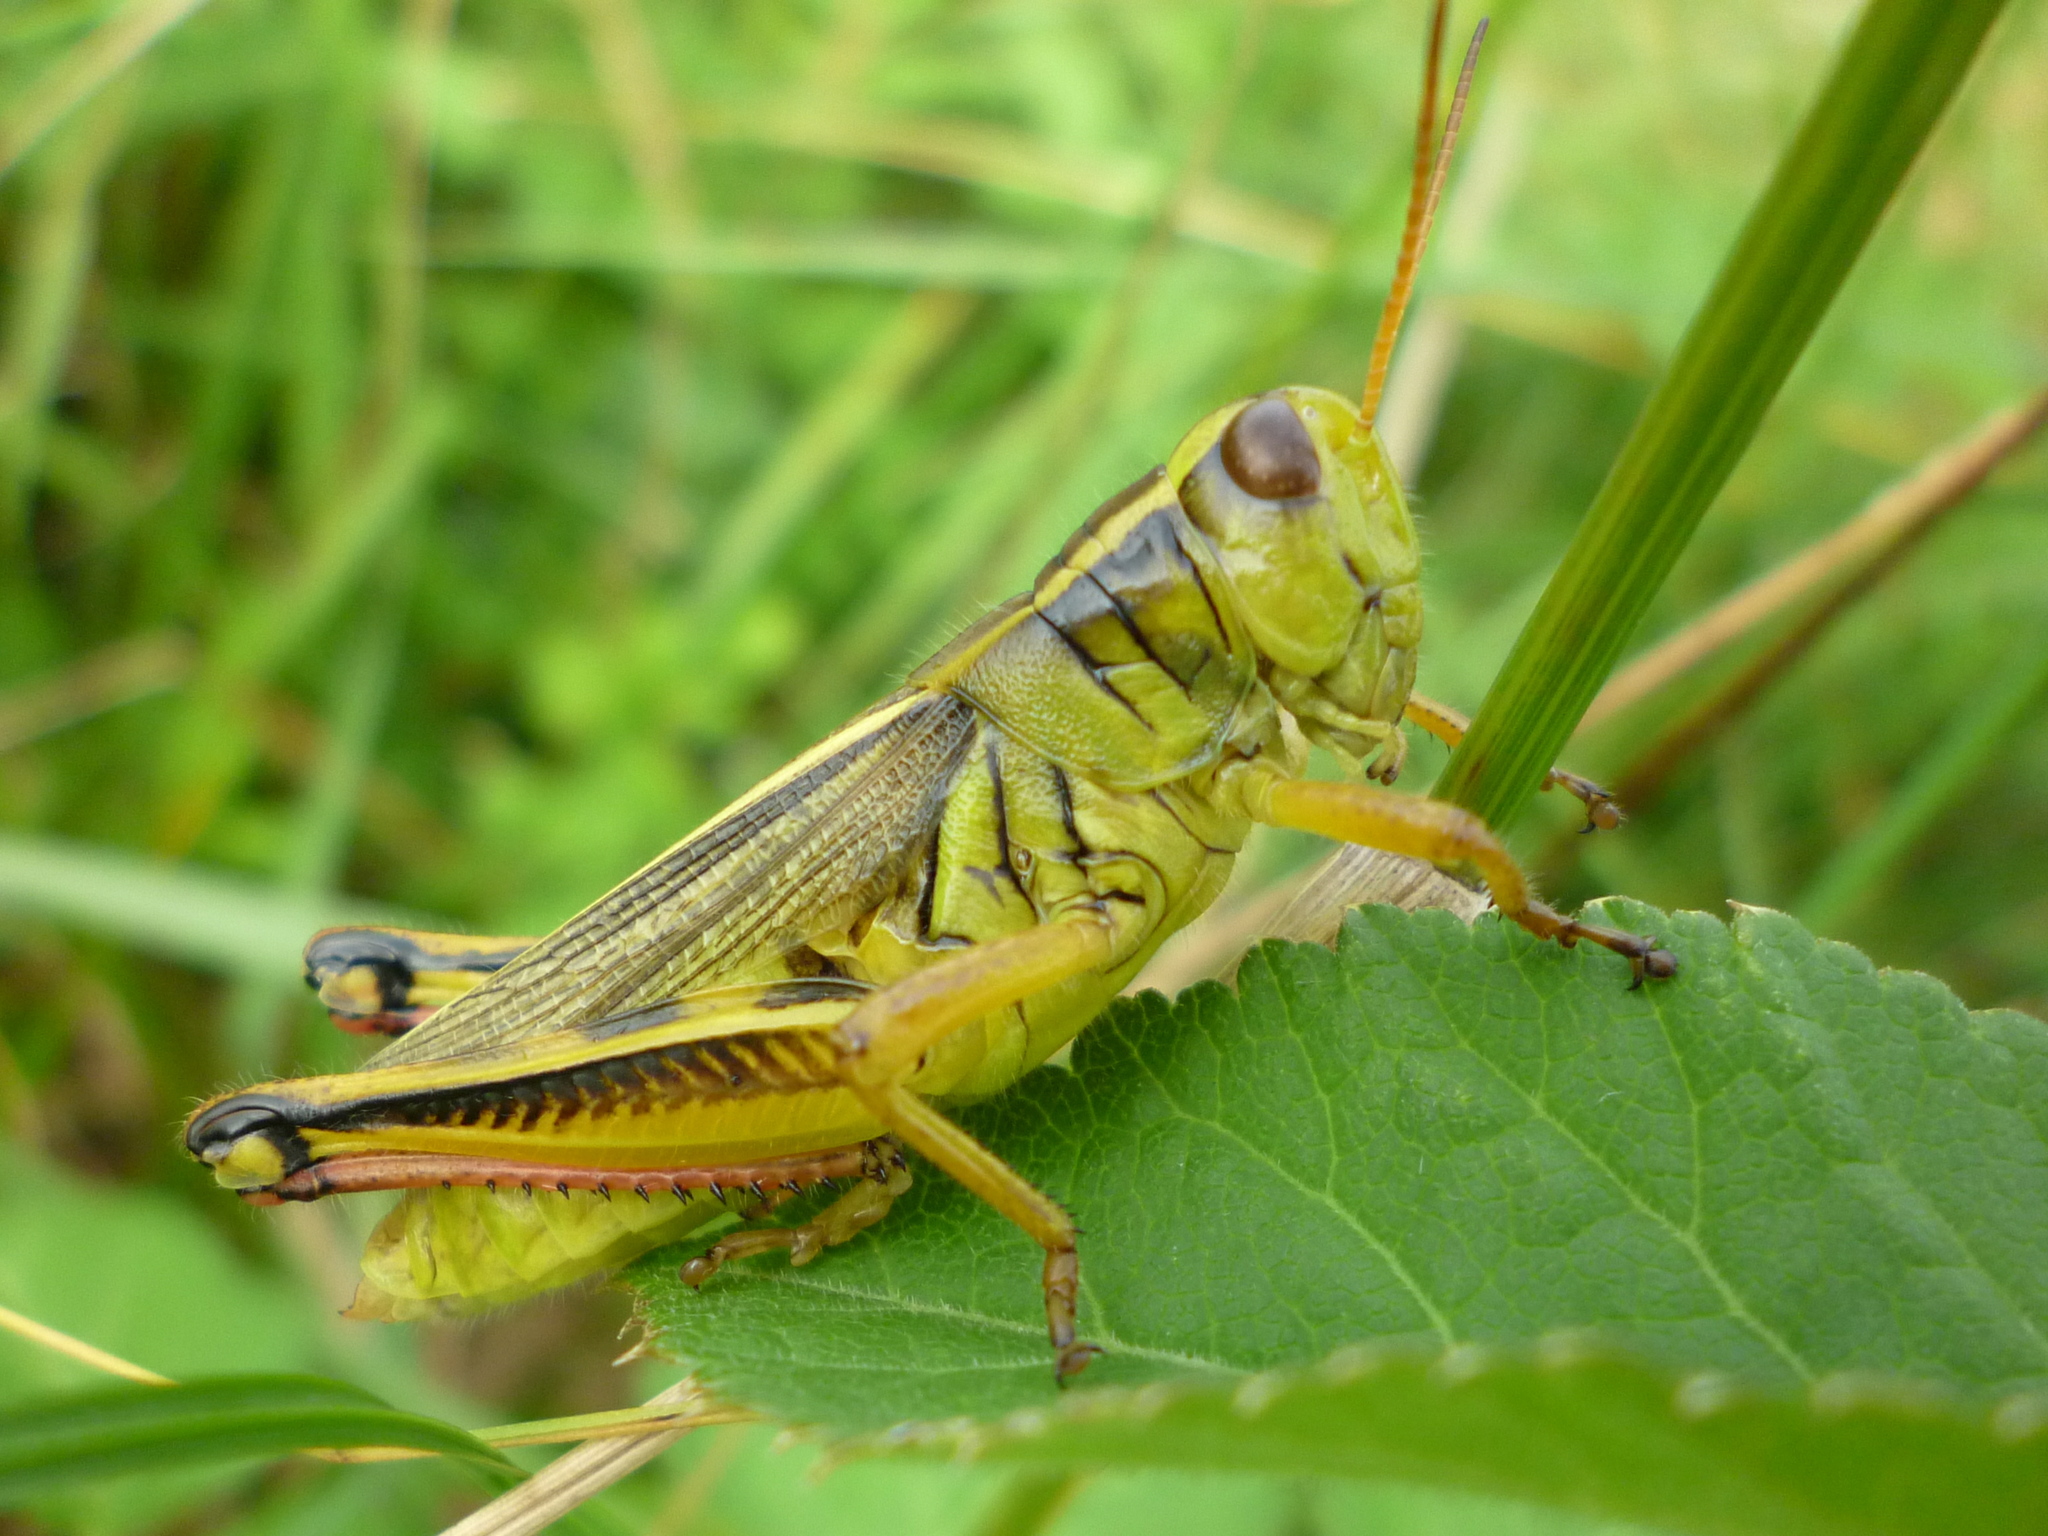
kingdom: Animalia
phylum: Arthropoda
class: Insecta
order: Orthoptera
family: Acrididae
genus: Melanoplus
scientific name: Melanoplus bivittatus
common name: Two-striped grasshopper
